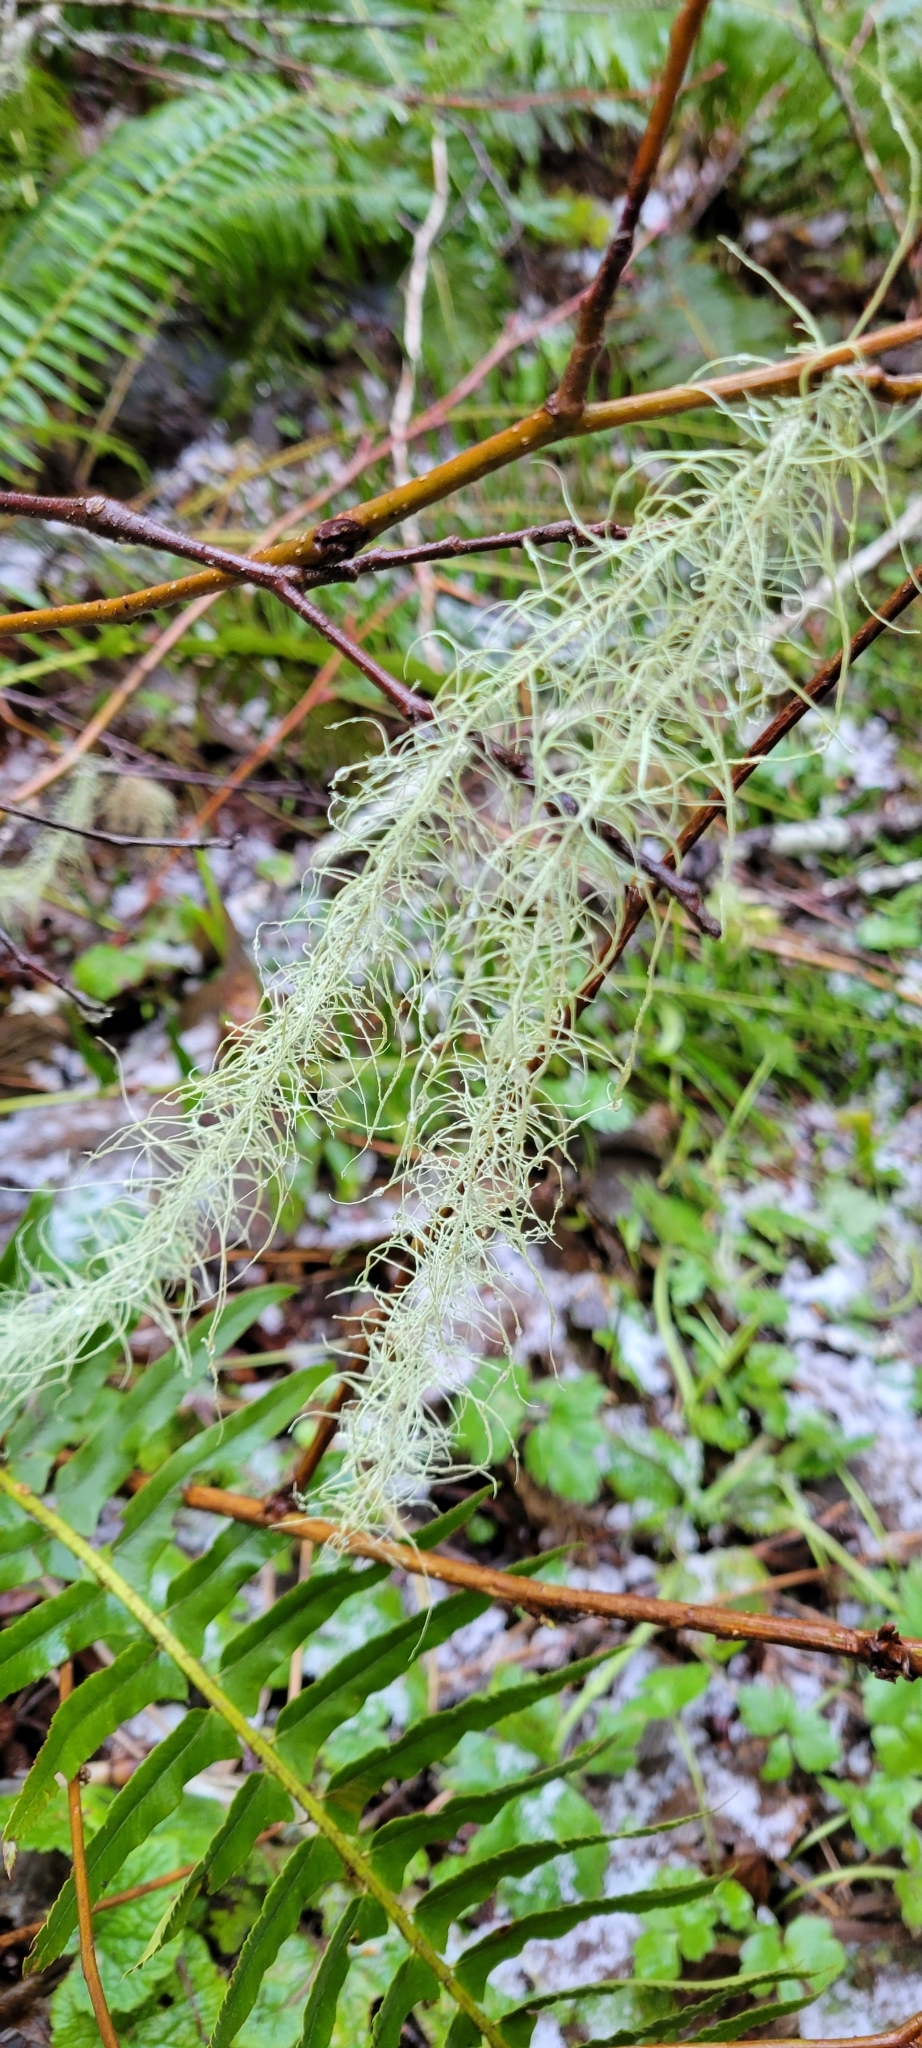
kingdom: Fungi
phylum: Ascomycota
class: Lecanoromycetes
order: Lecanorales
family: Parmeliaceae
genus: Dolichousnea
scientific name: Dolichousnea longissima
